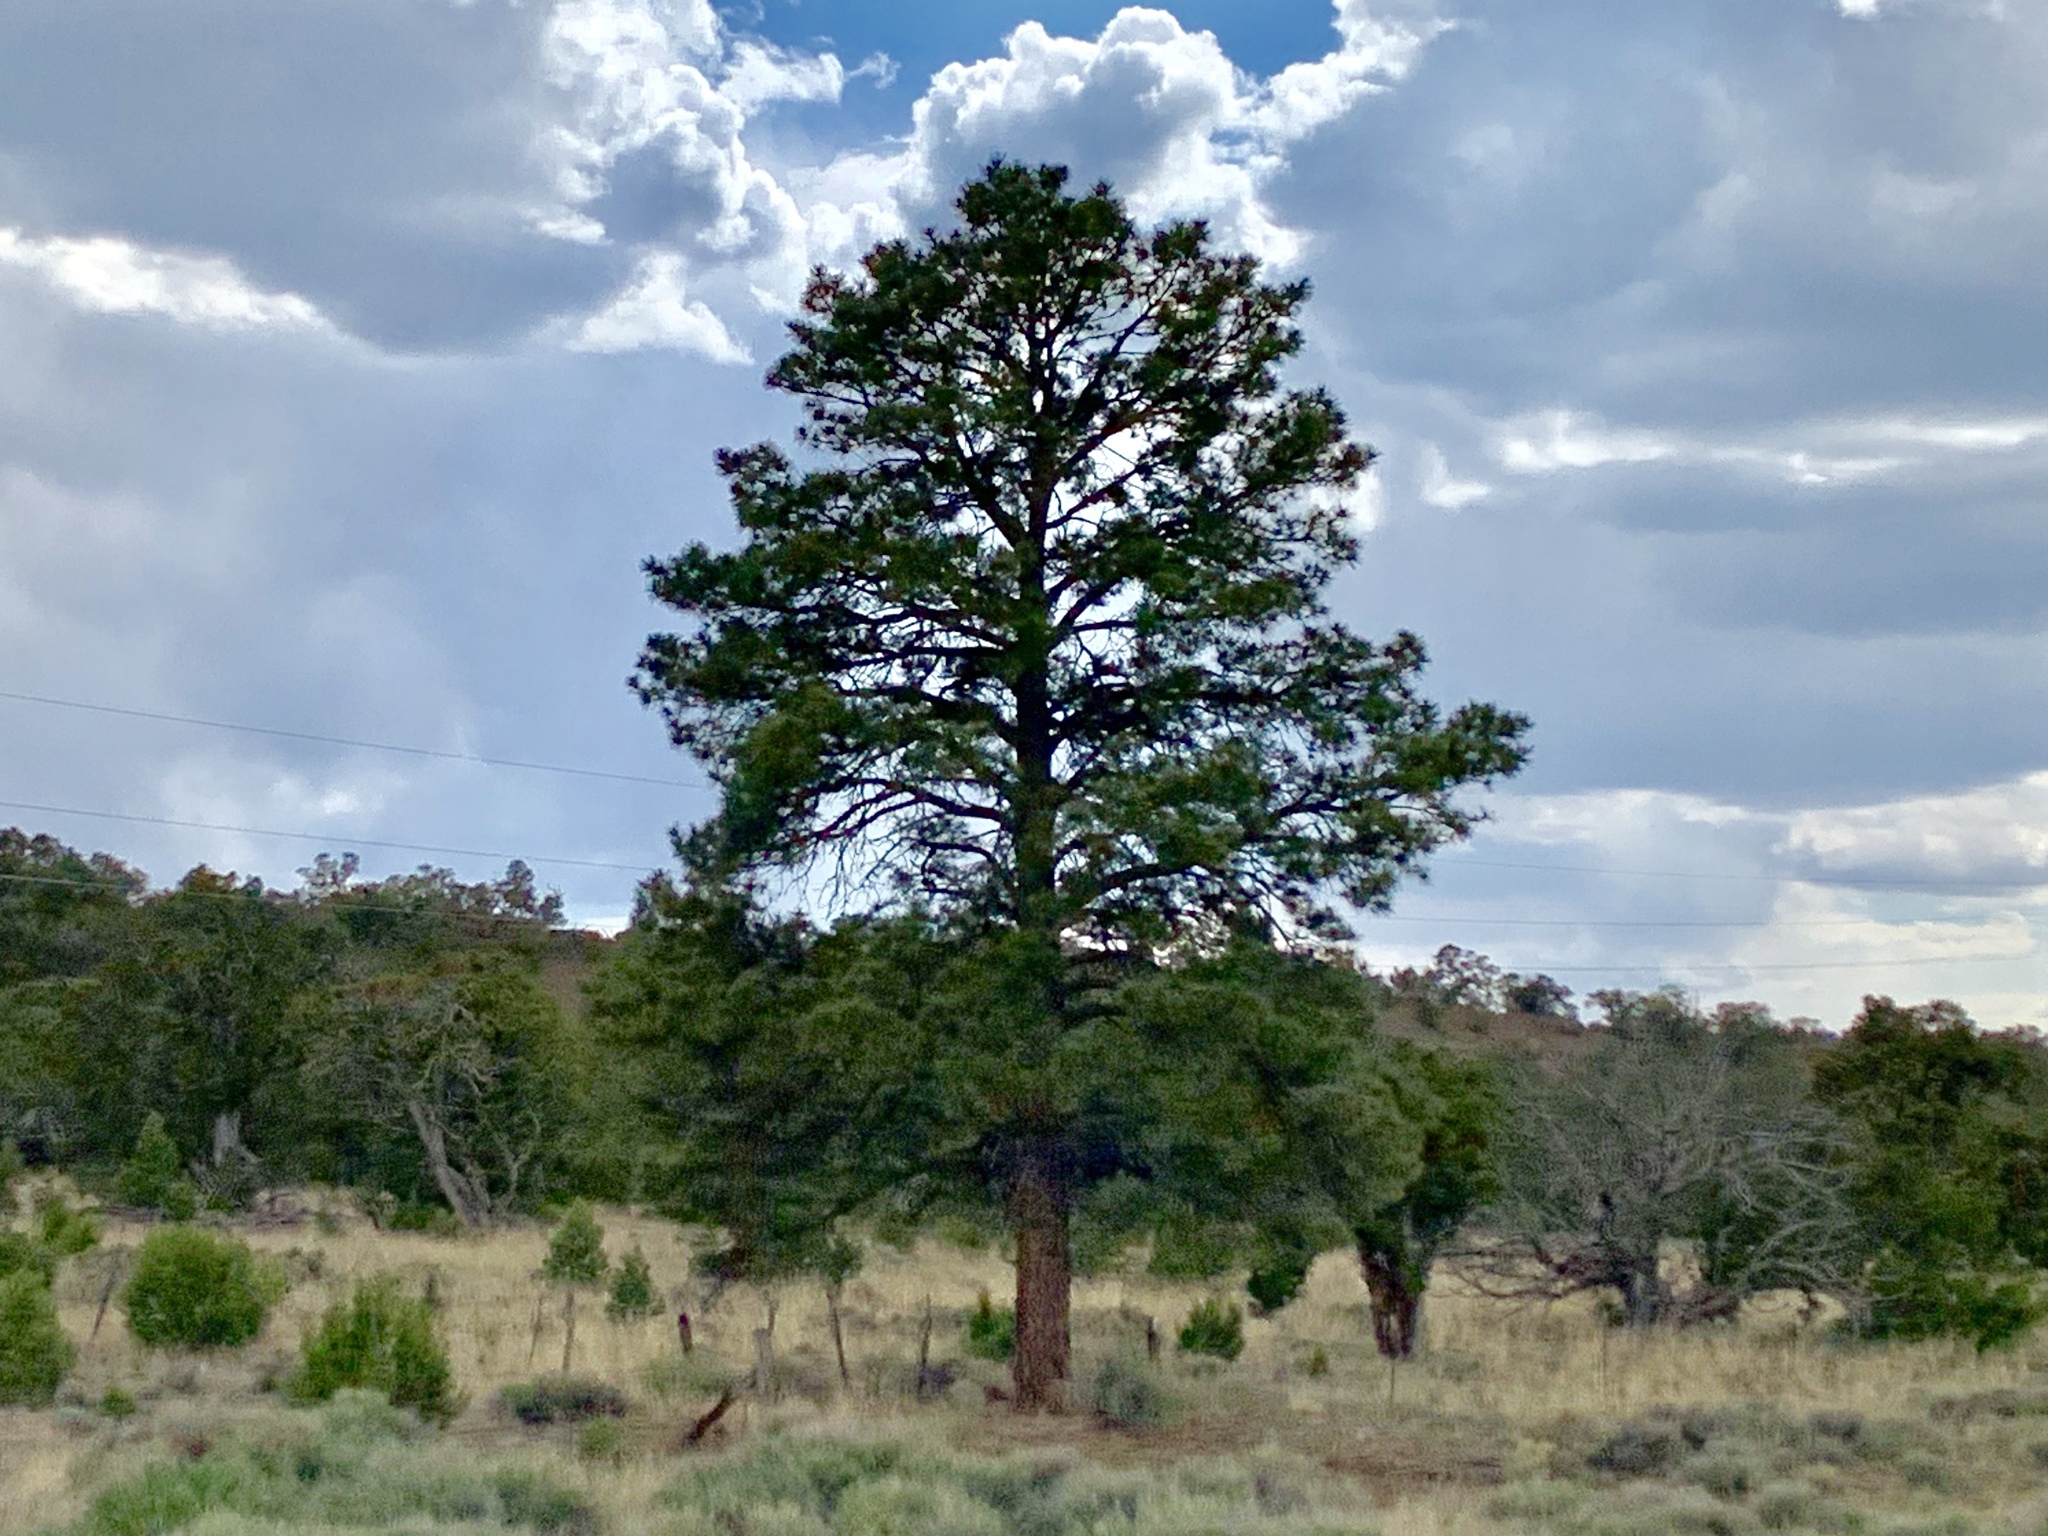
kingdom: Plantae
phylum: Tracheophyta
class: Pinopsida
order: Pinales
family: Pinaceae
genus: Pinus
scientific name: Pinus ponderosa
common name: Western yellow-pine
